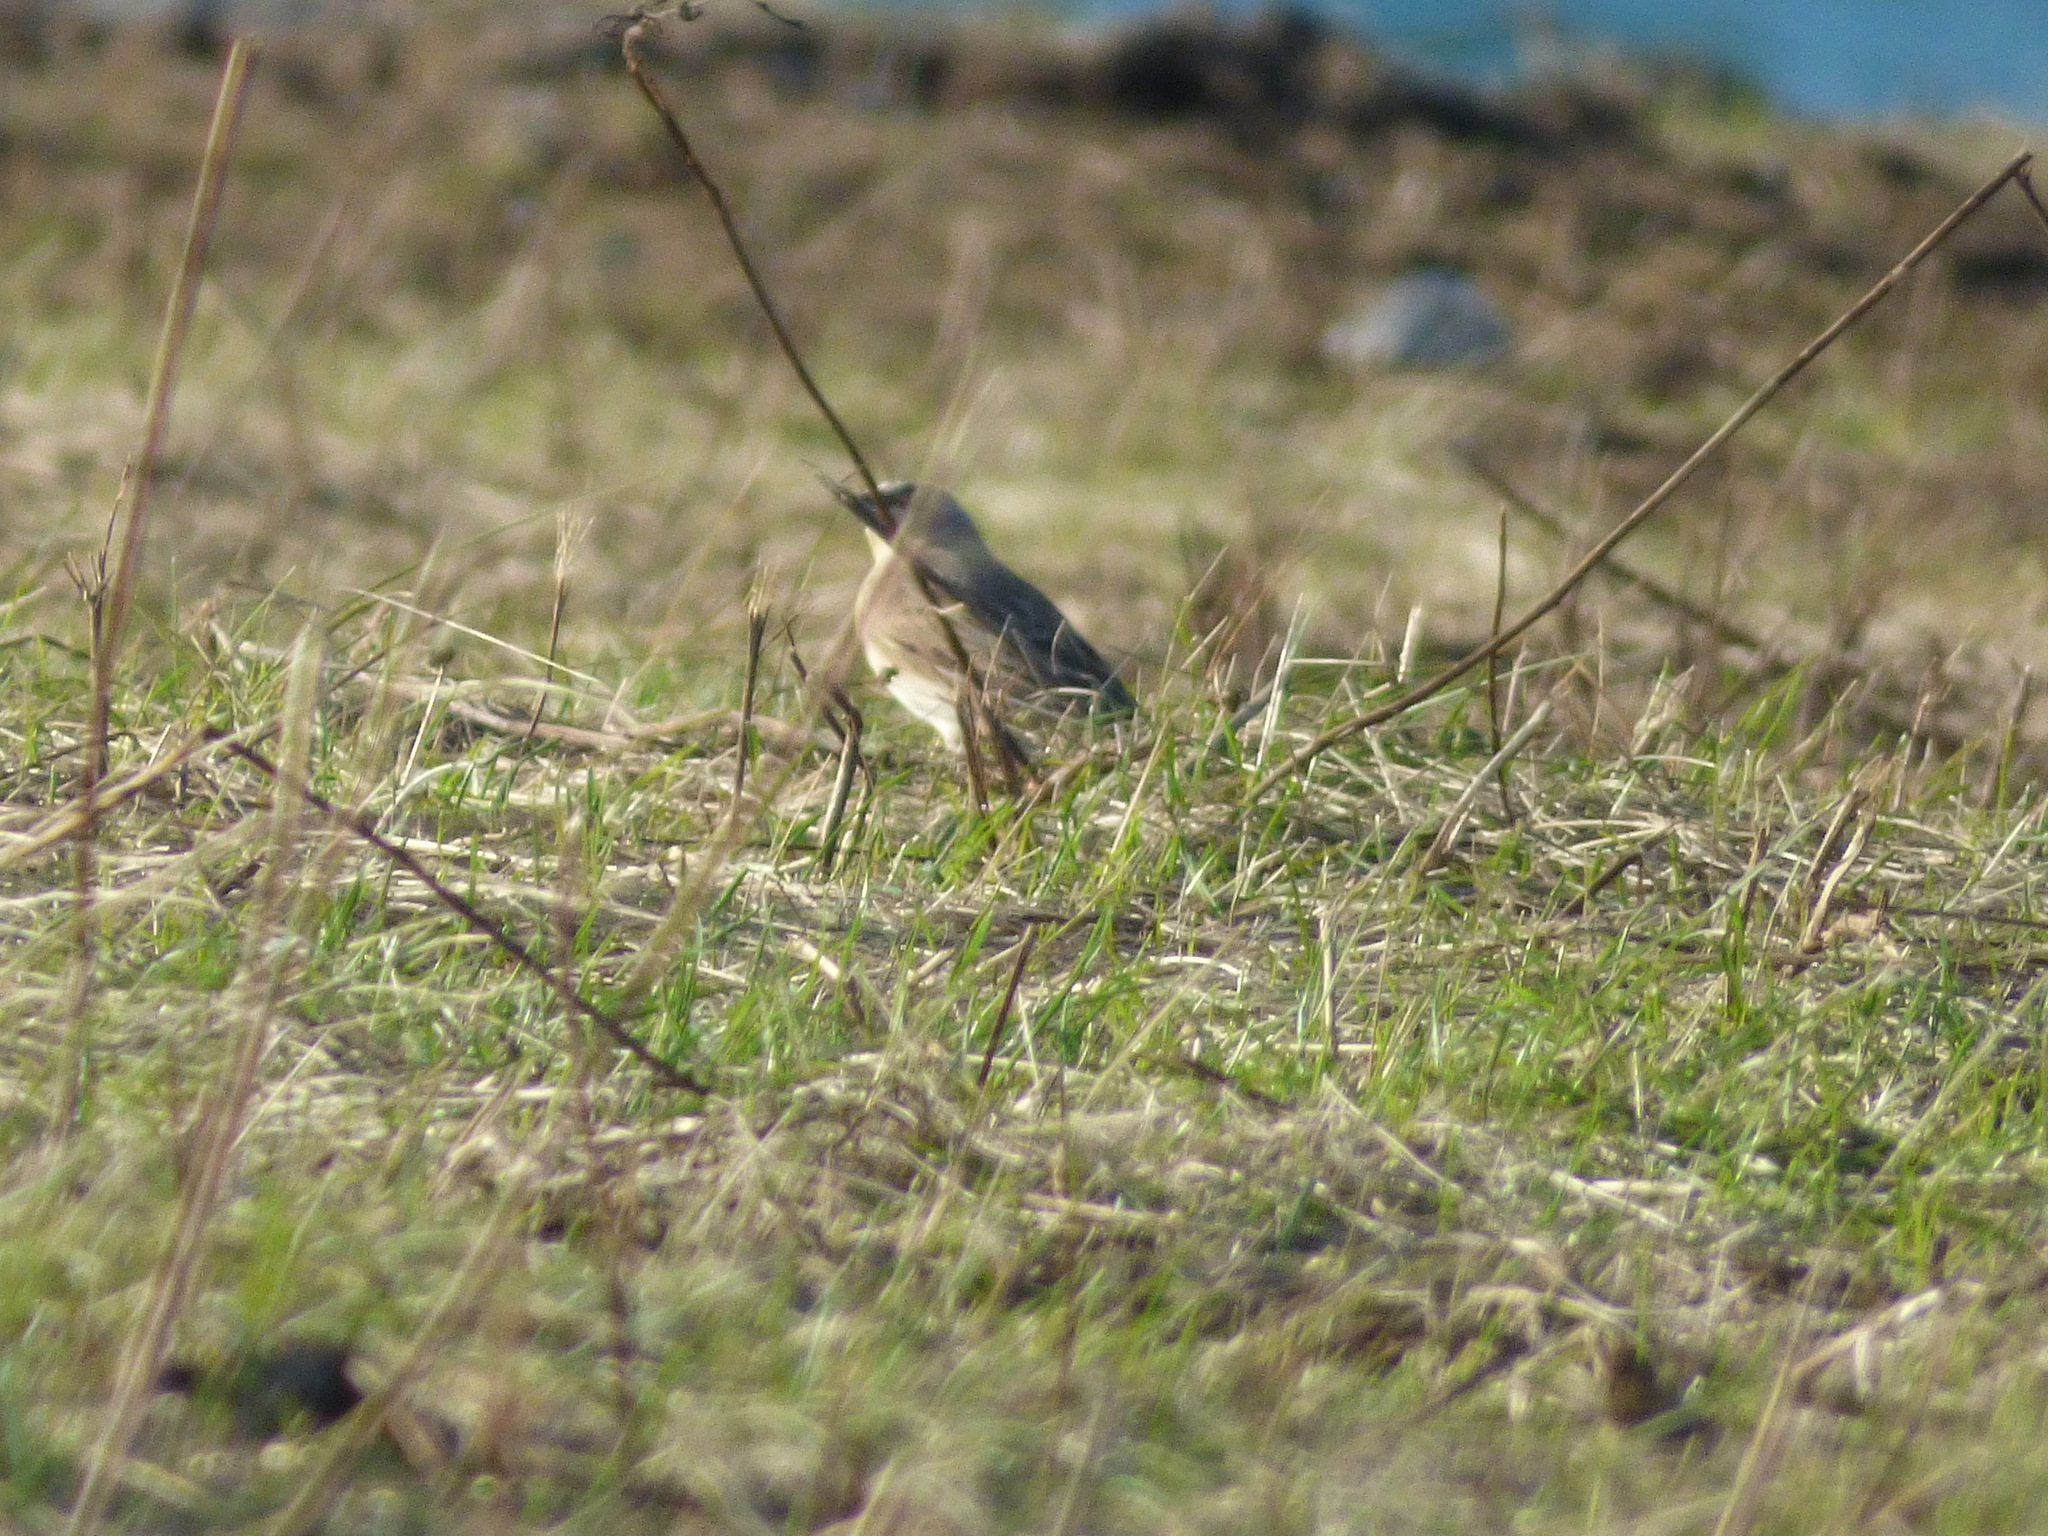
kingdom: Animalia
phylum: Chordata
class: Aves
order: Passeriformes
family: Alaudidae
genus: Eremophila
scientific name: Eremophila alpestris
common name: Horned lark
